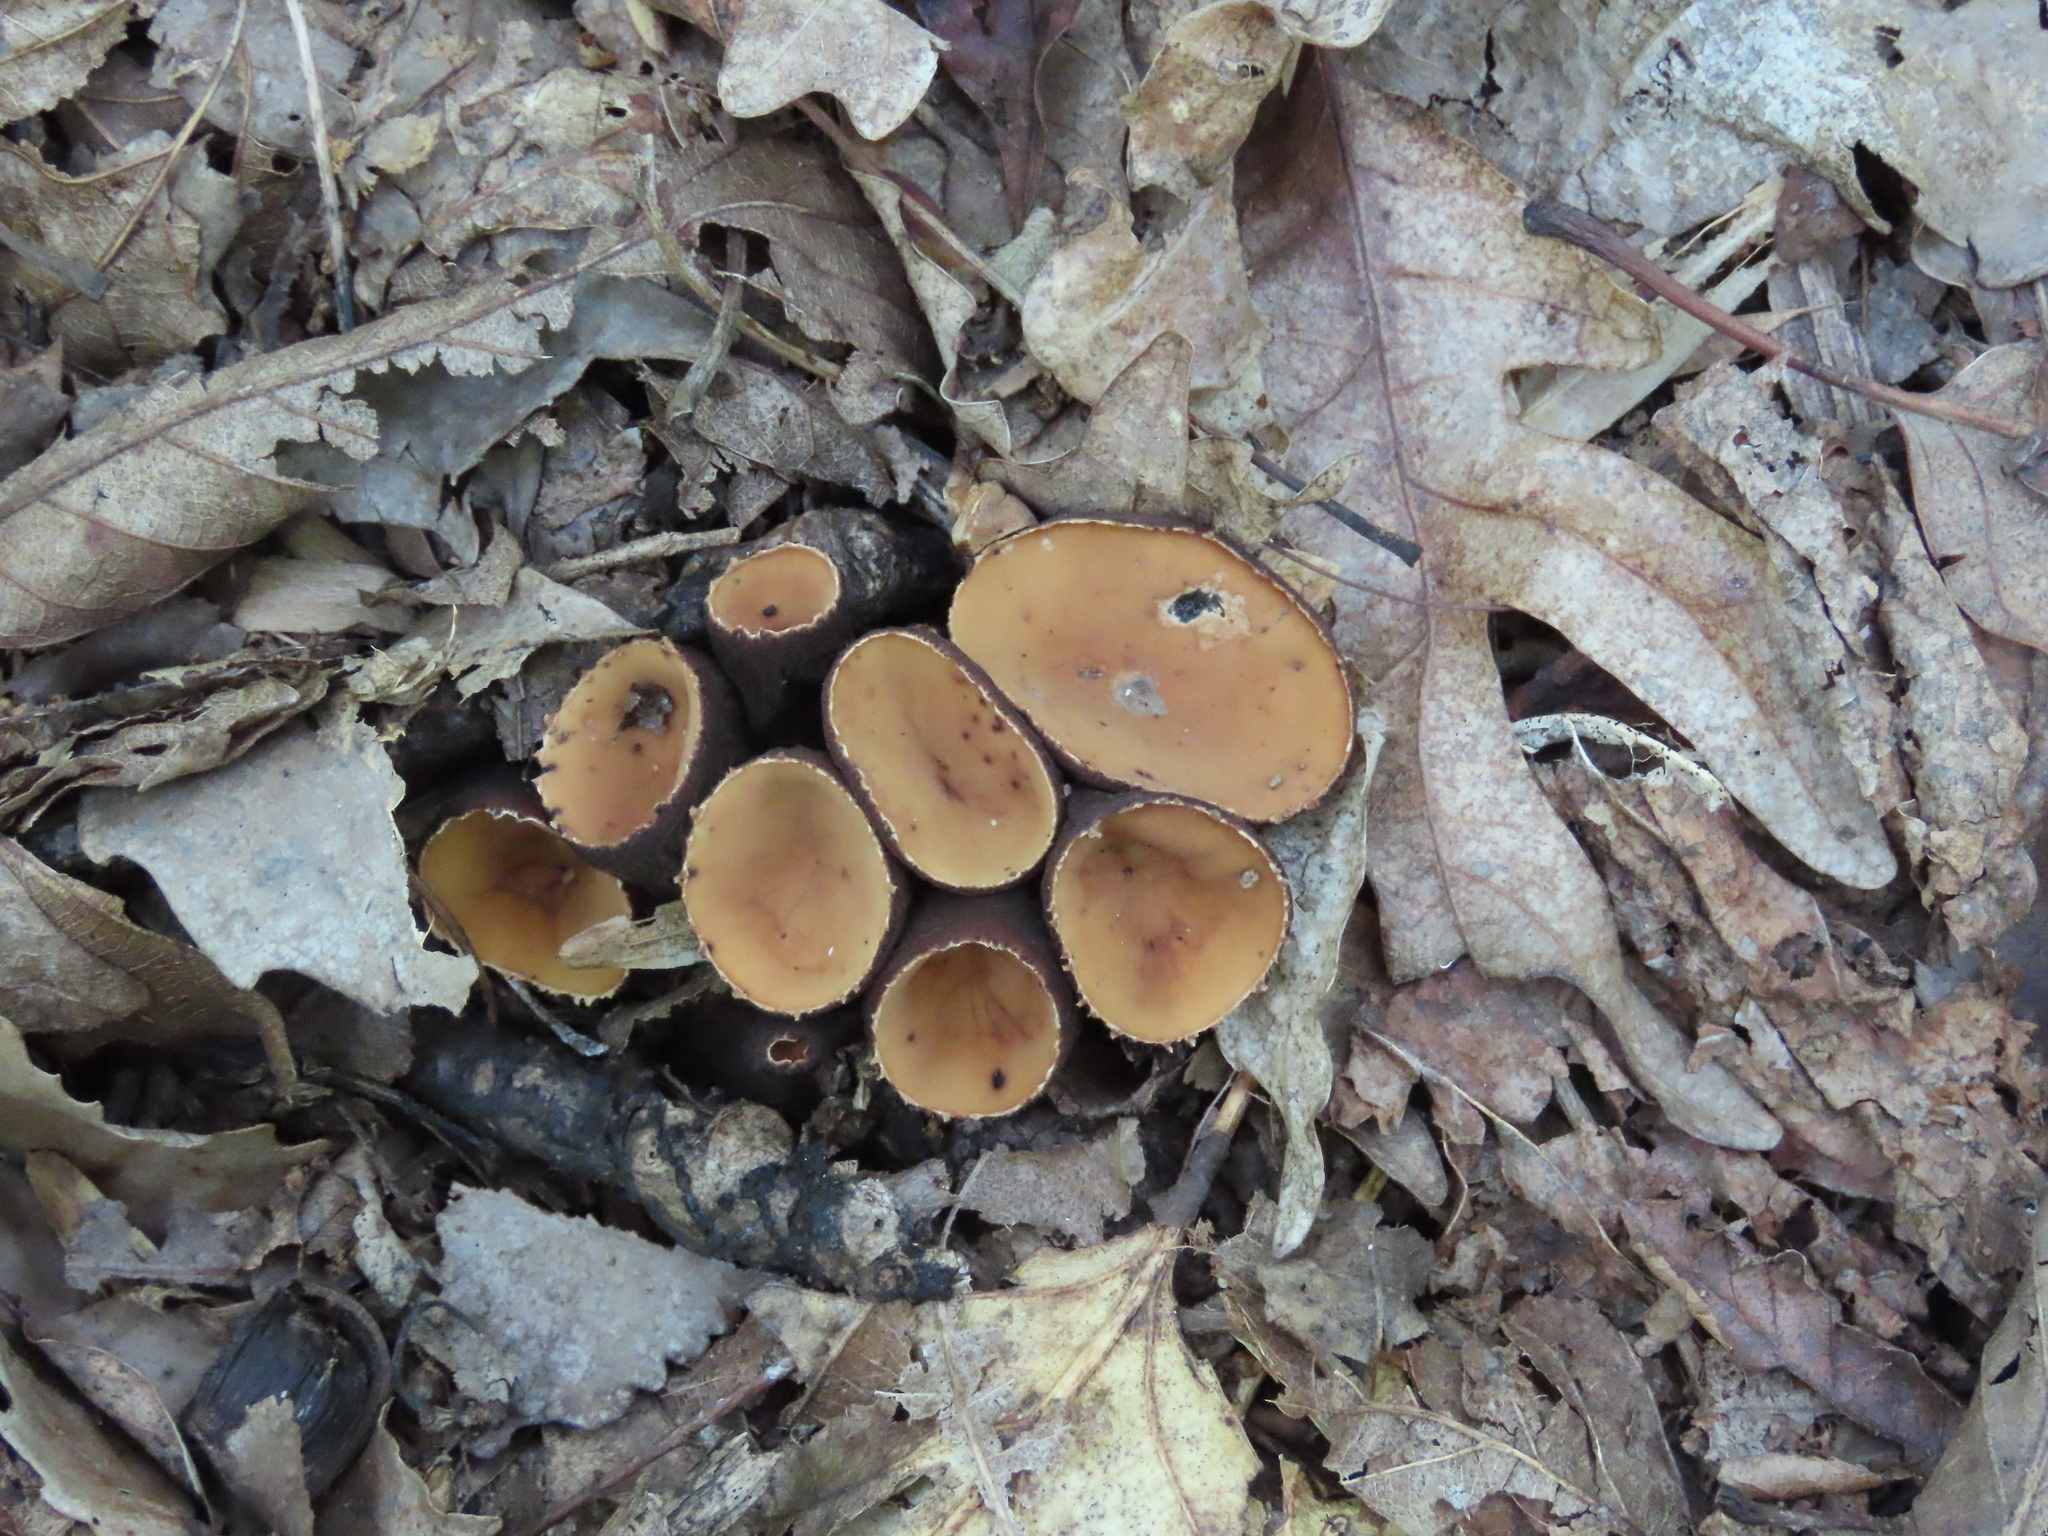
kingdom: Fungi
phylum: Ascomycota
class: Pezizomycetes
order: Pezizales
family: Sarcosomataceae
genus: Galiella
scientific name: Galiella rufa
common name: Hairy rubber cup
